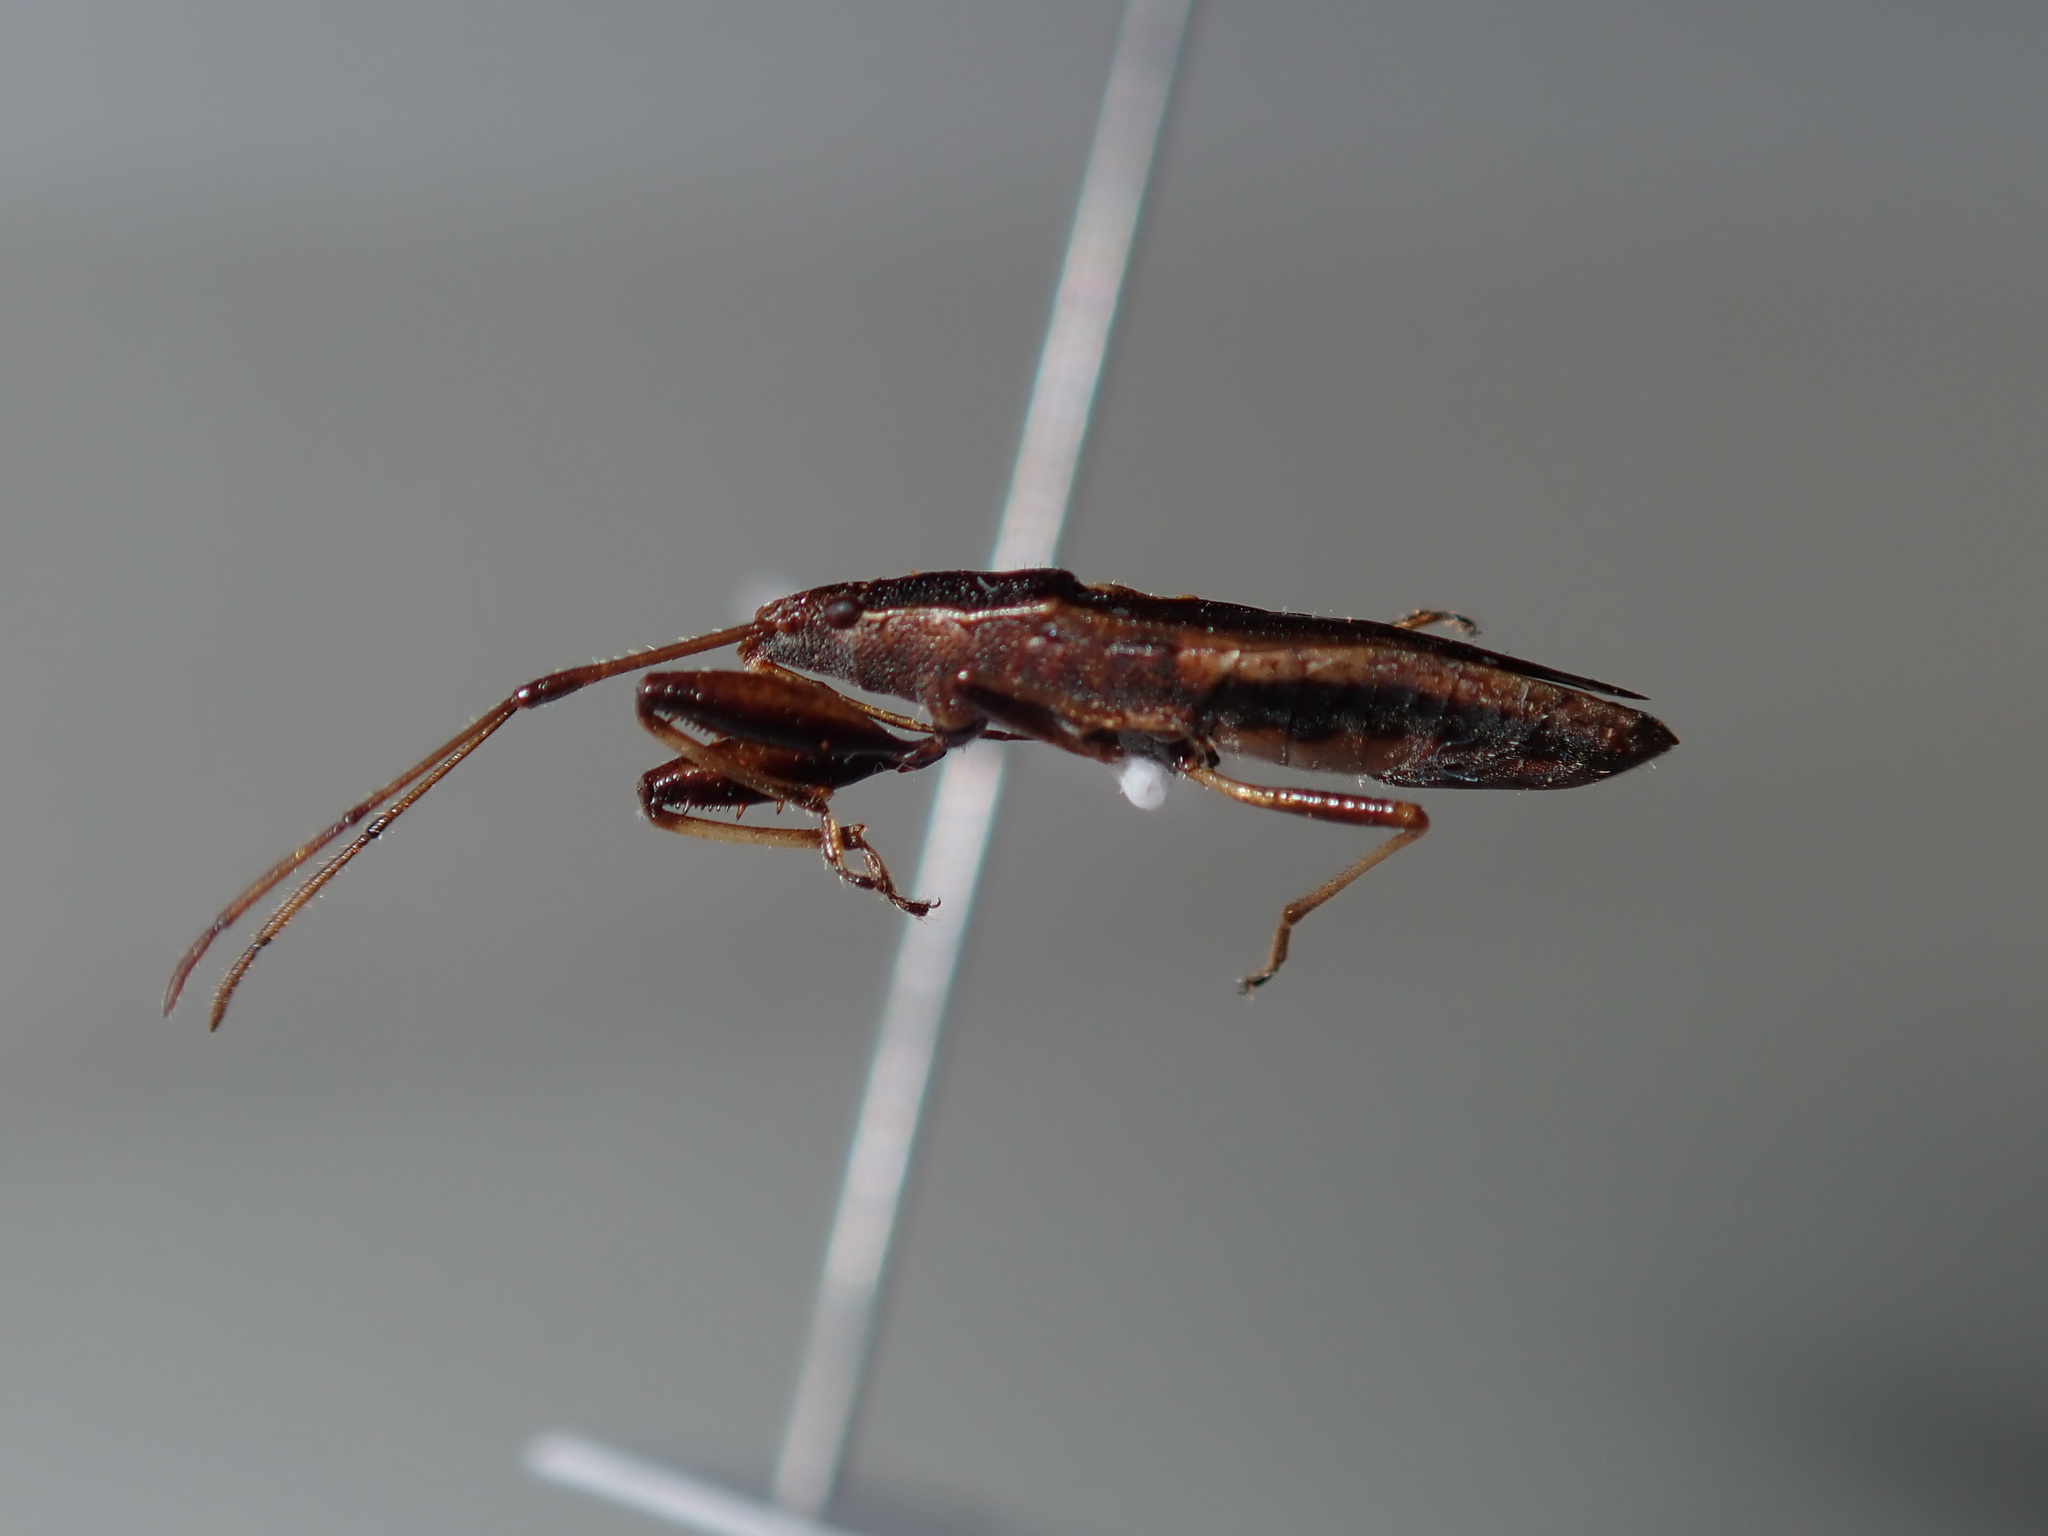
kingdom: Animalia
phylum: Arthropoda
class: Insecta
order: Hemiptera
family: Pachygronthidae
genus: Pachygrontha
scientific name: Pachygrontha robusta
